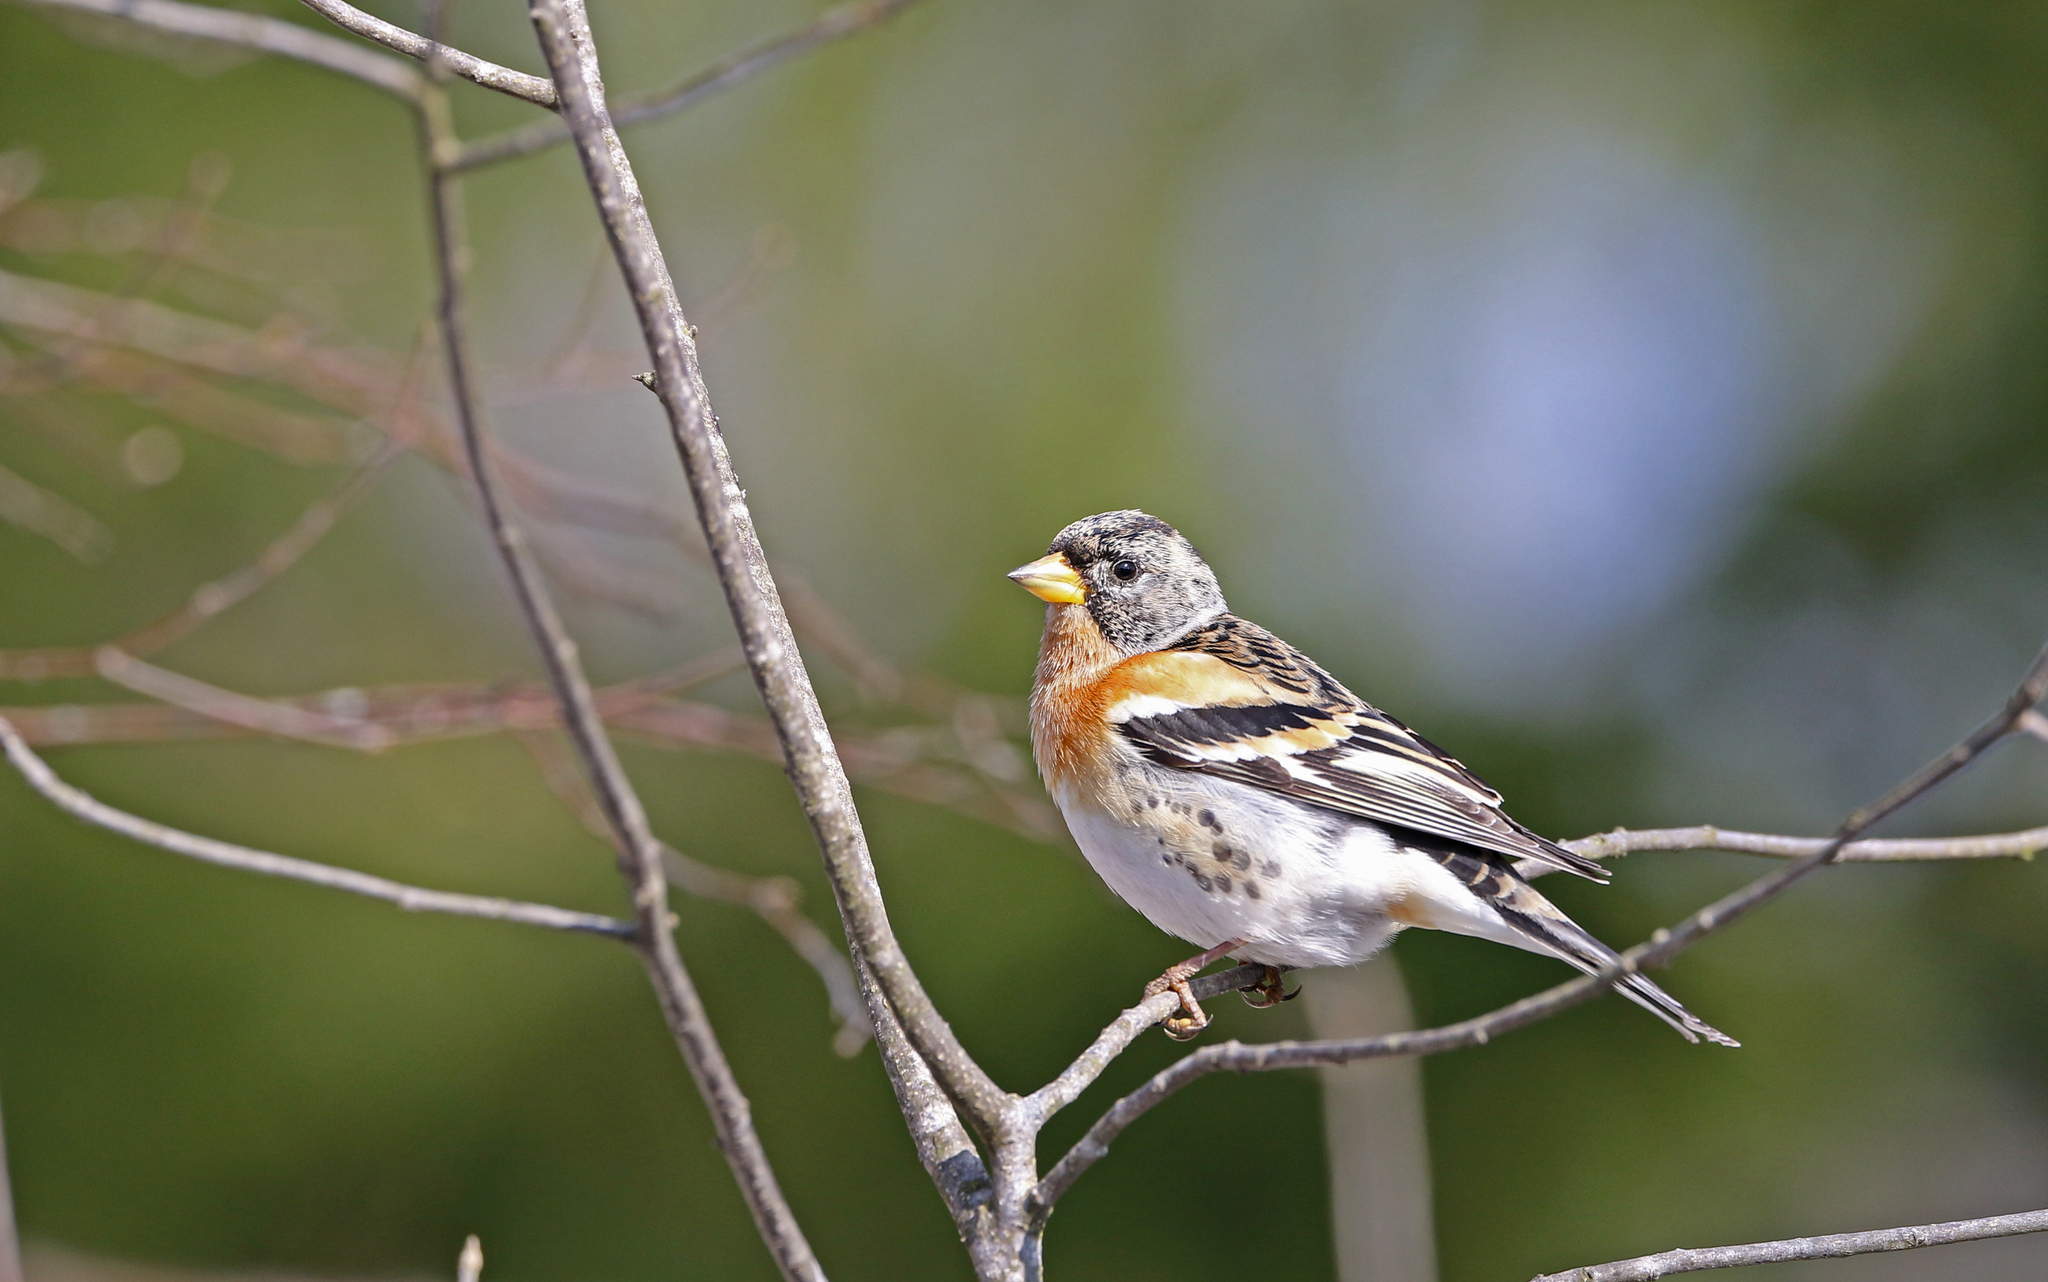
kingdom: Animalia
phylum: Chordata
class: Aves
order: Passeriformes
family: Fringillidae
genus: Fringilla
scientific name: Fringilla montifringilla
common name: Brambling
